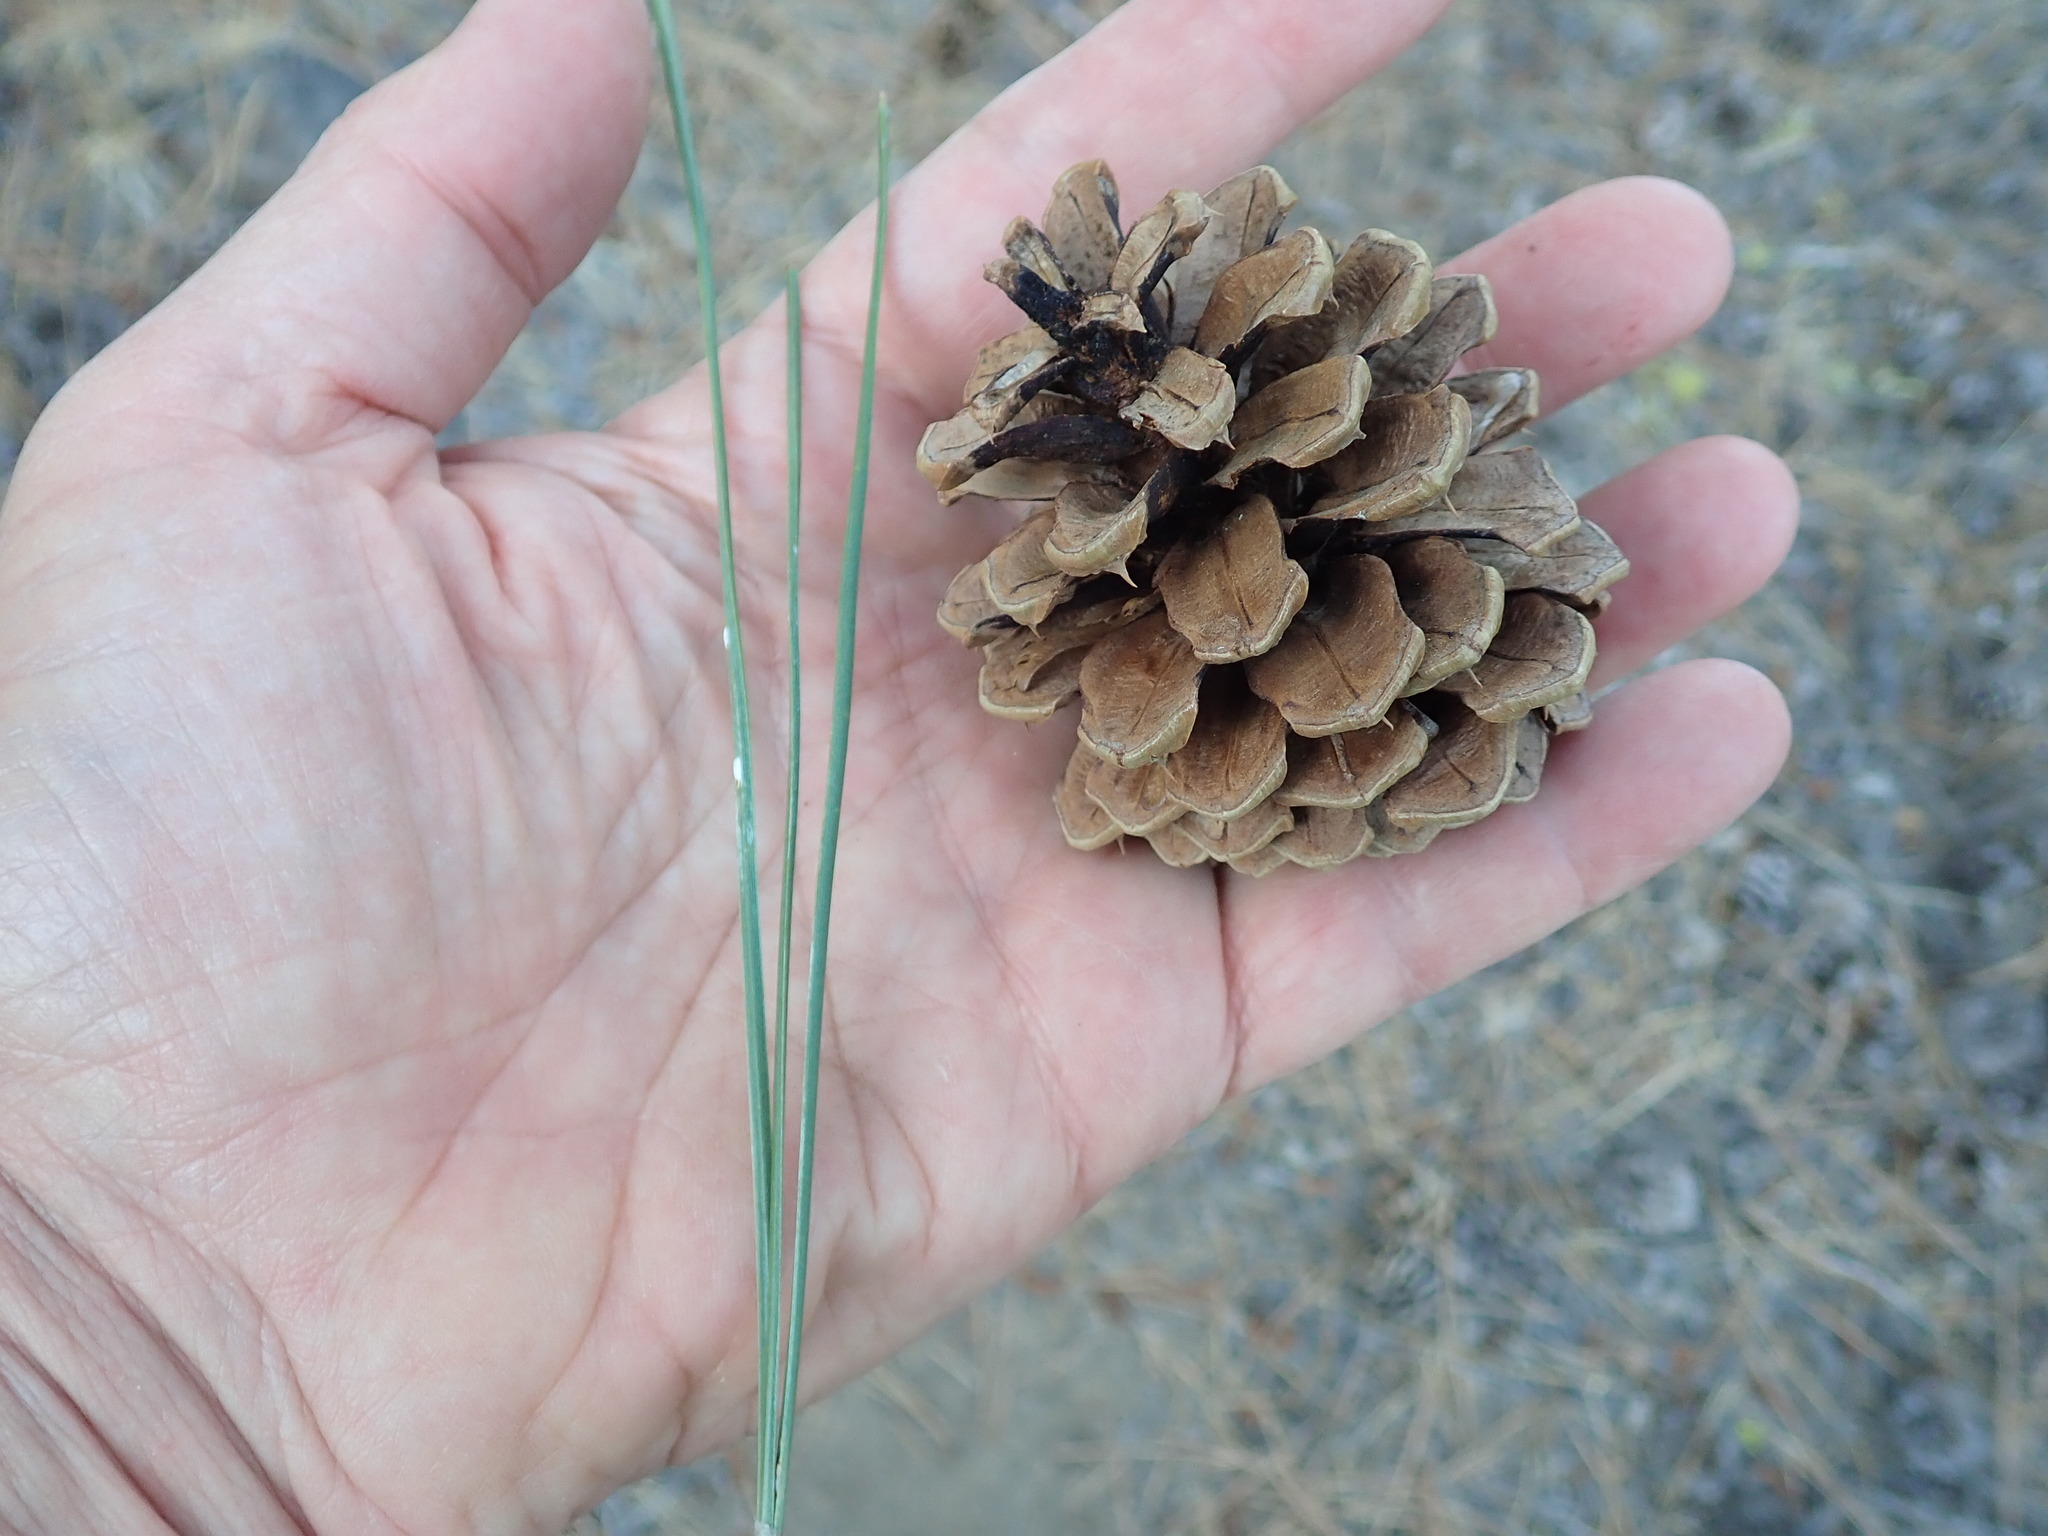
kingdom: Plantae
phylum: Tracheophyta
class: Pinopsida
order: Pinales
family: Pinaceae
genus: Pinus
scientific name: Pinus ponderosa
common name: Western yellow-pine
